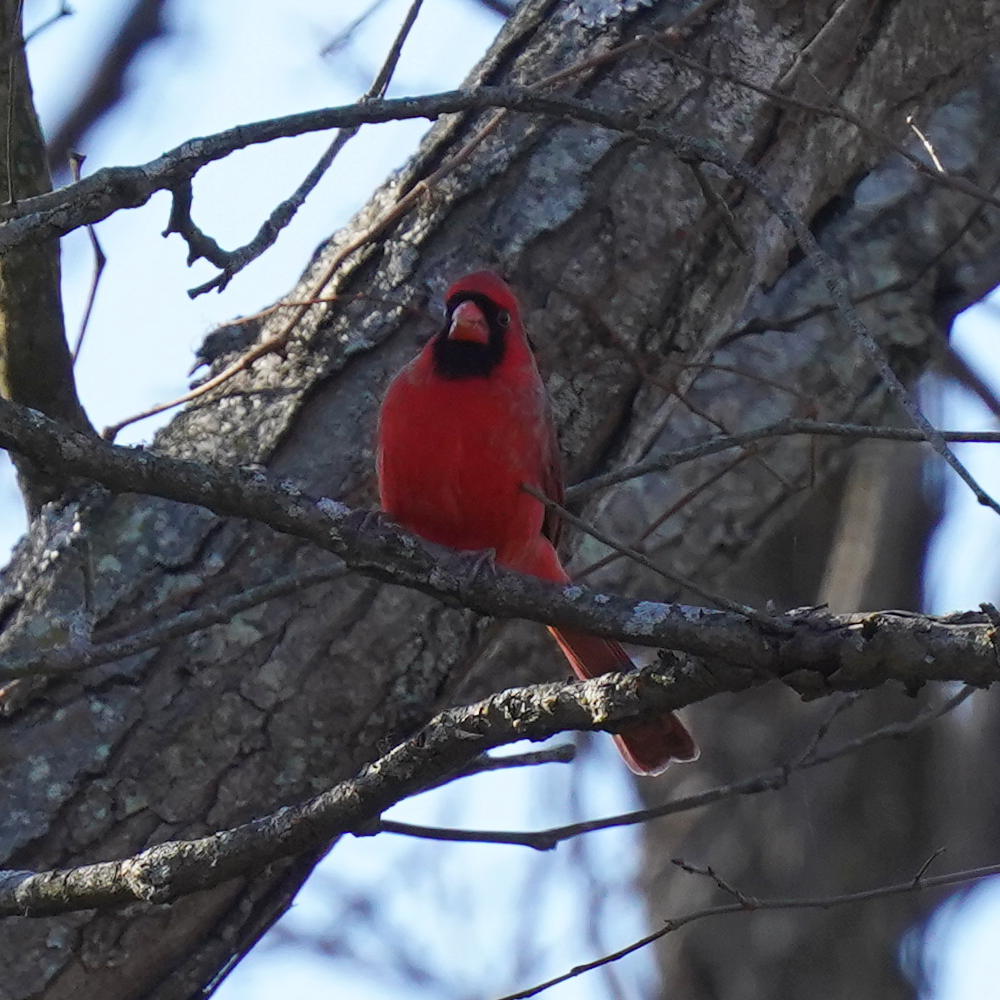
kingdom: Animalia
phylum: Chordata
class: Aves
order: Passeriformes
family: Cardinalidae
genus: Cardinalis
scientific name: Cardinalis cardinalis
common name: Northern cardinal
